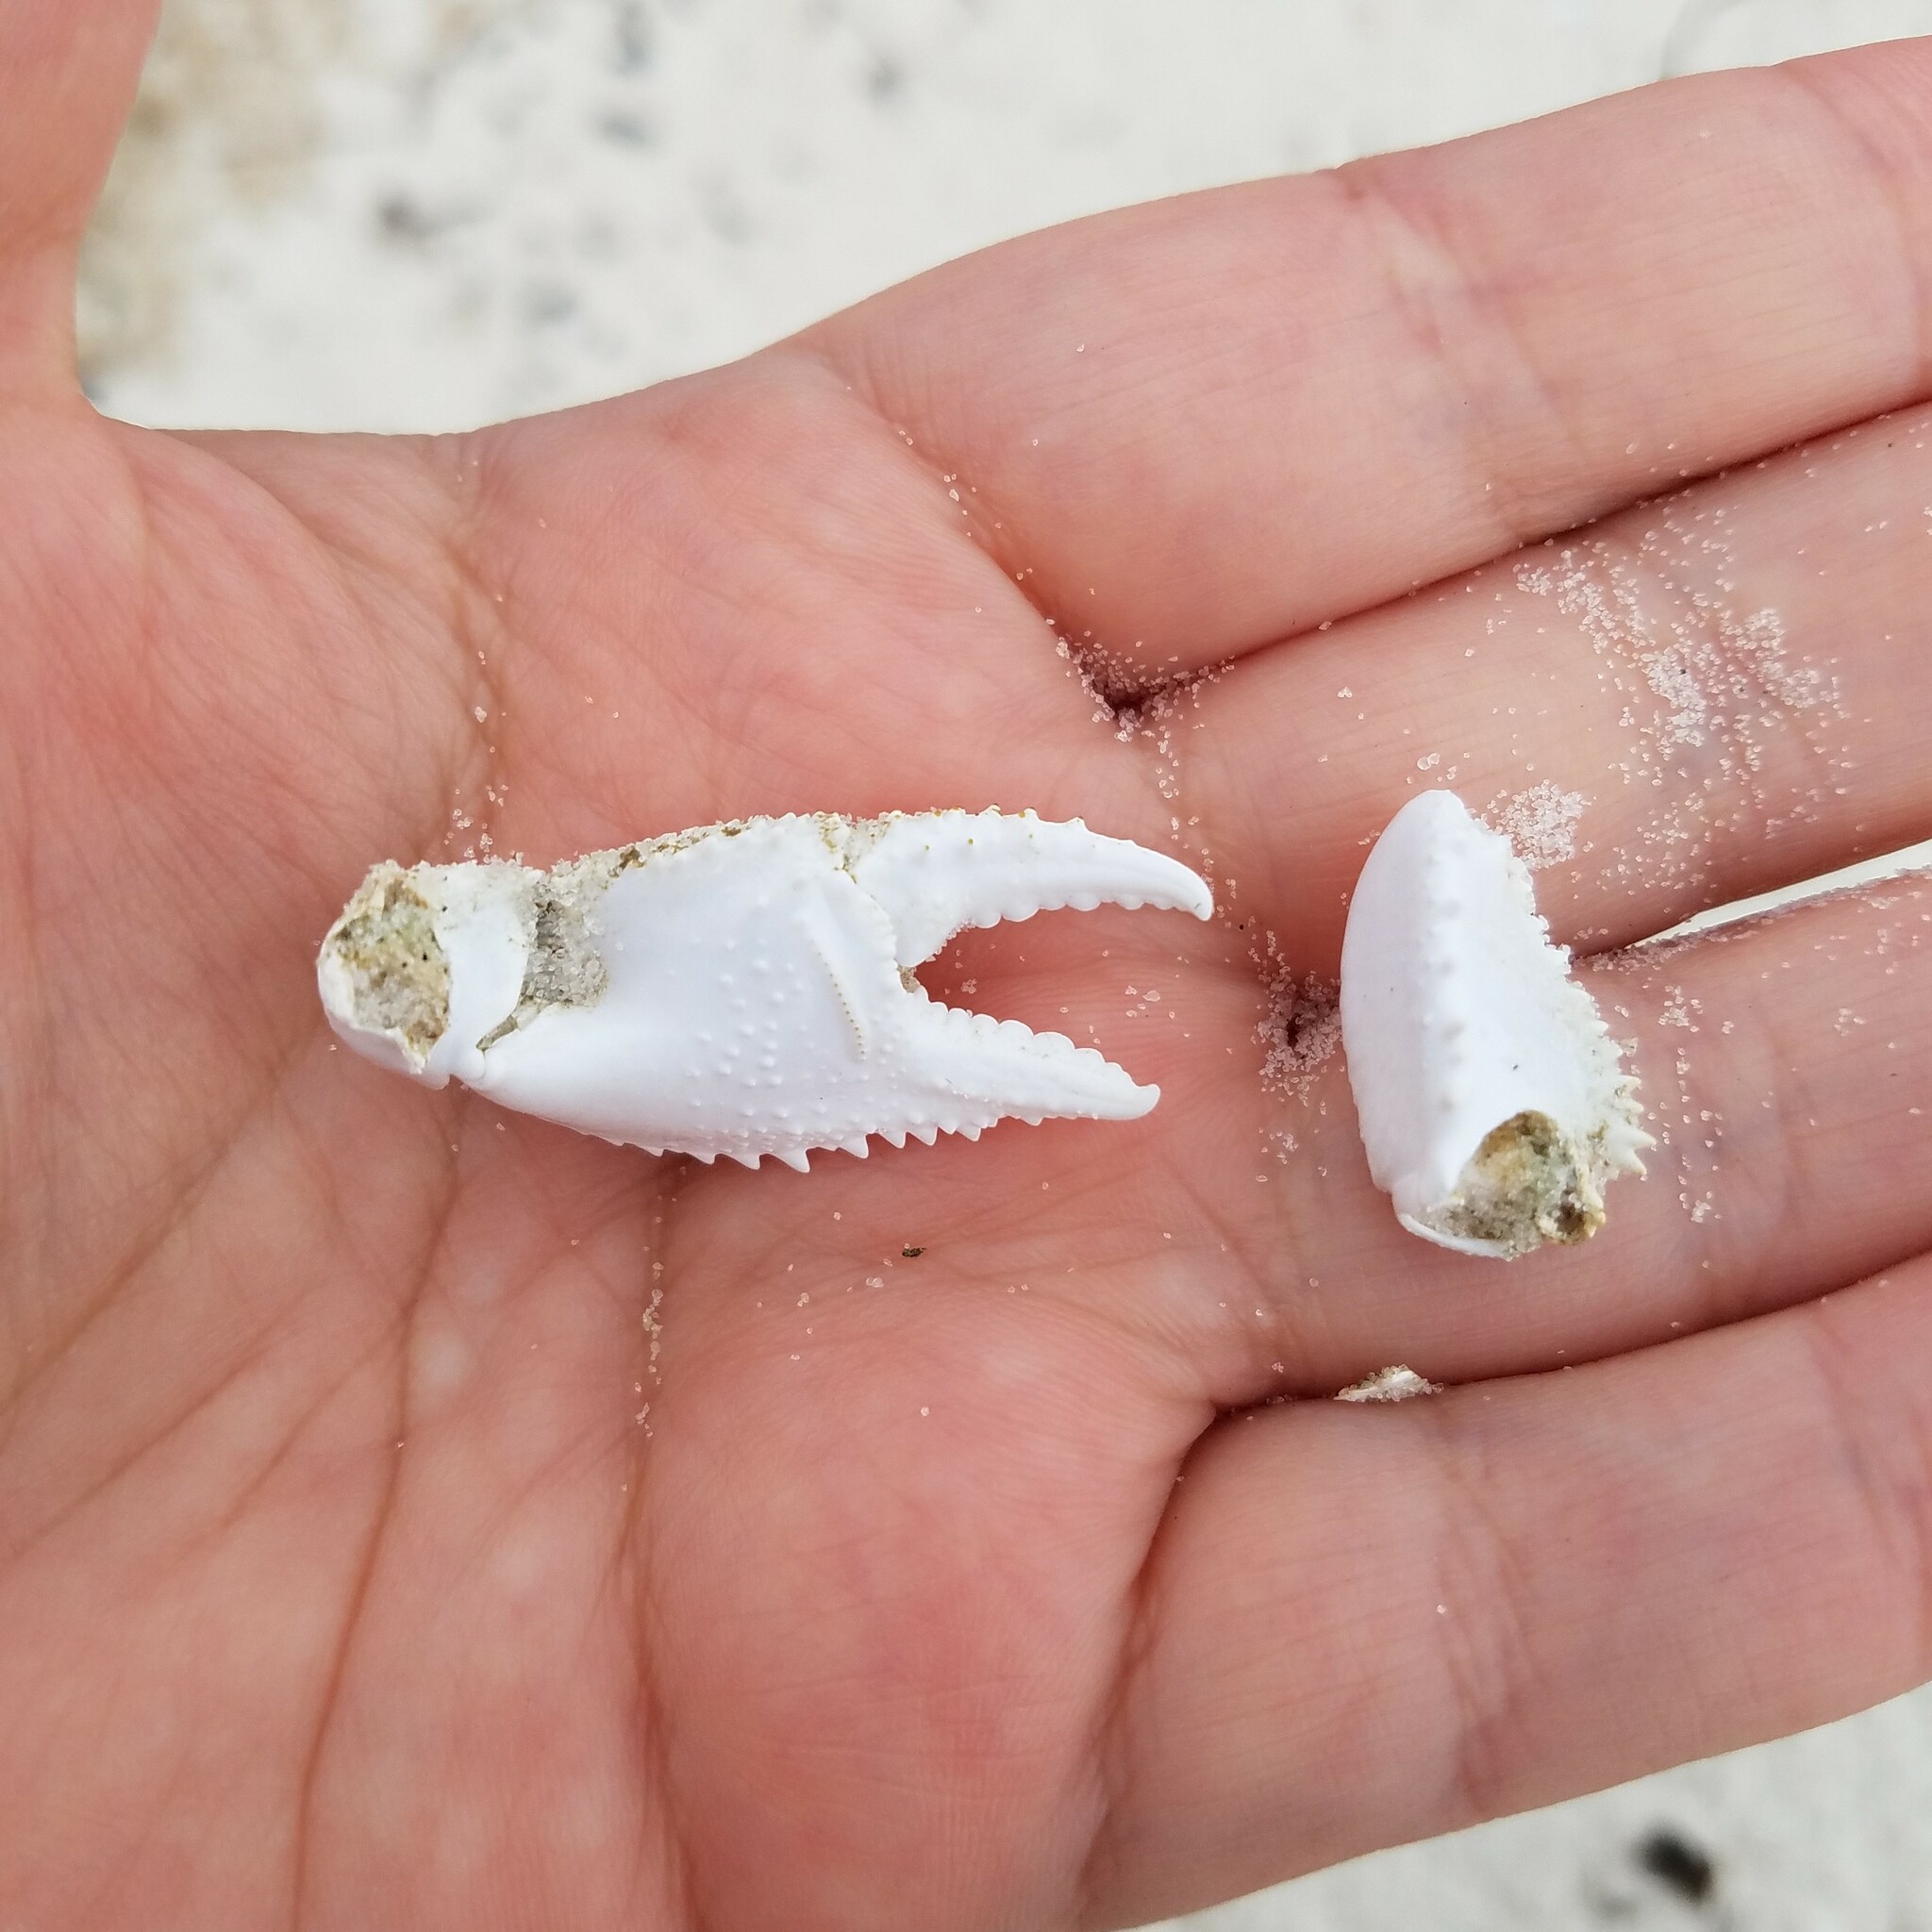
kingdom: Animalia
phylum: Arthropoda
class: Malacostraca
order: Decapoda
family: Ocypodidae
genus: Ocypode
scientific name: Ocypode quadrata
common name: Ghost crab
